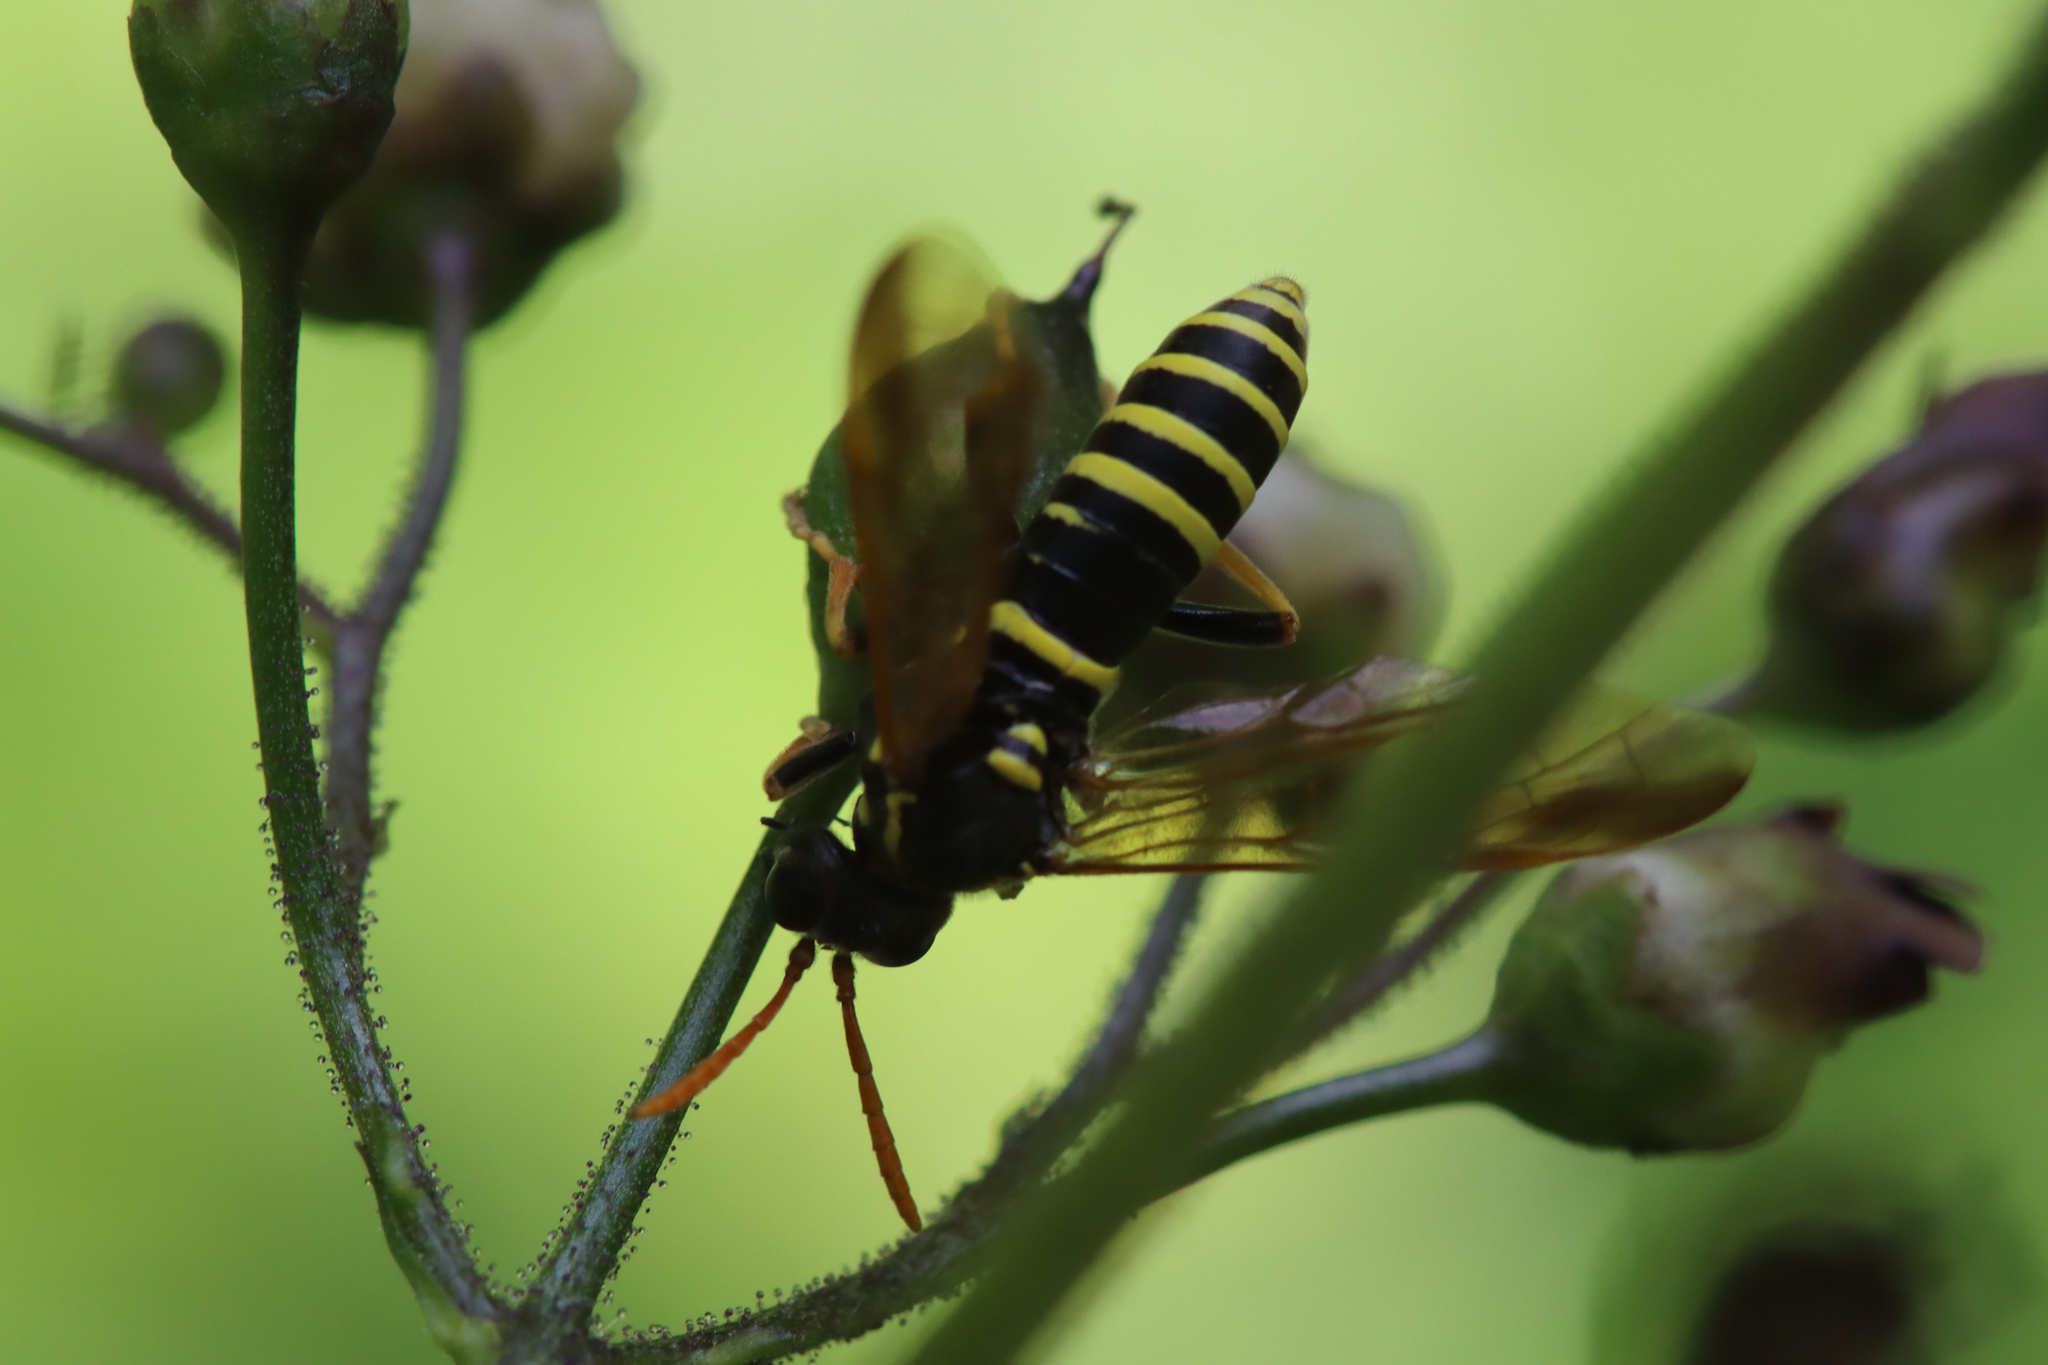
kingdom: Animalia
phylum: Arthropoda
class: Insecta
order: Hymenoptera
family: Tenthredinidae
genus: Tenthredo
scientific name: Tenthredo scrophulariae
